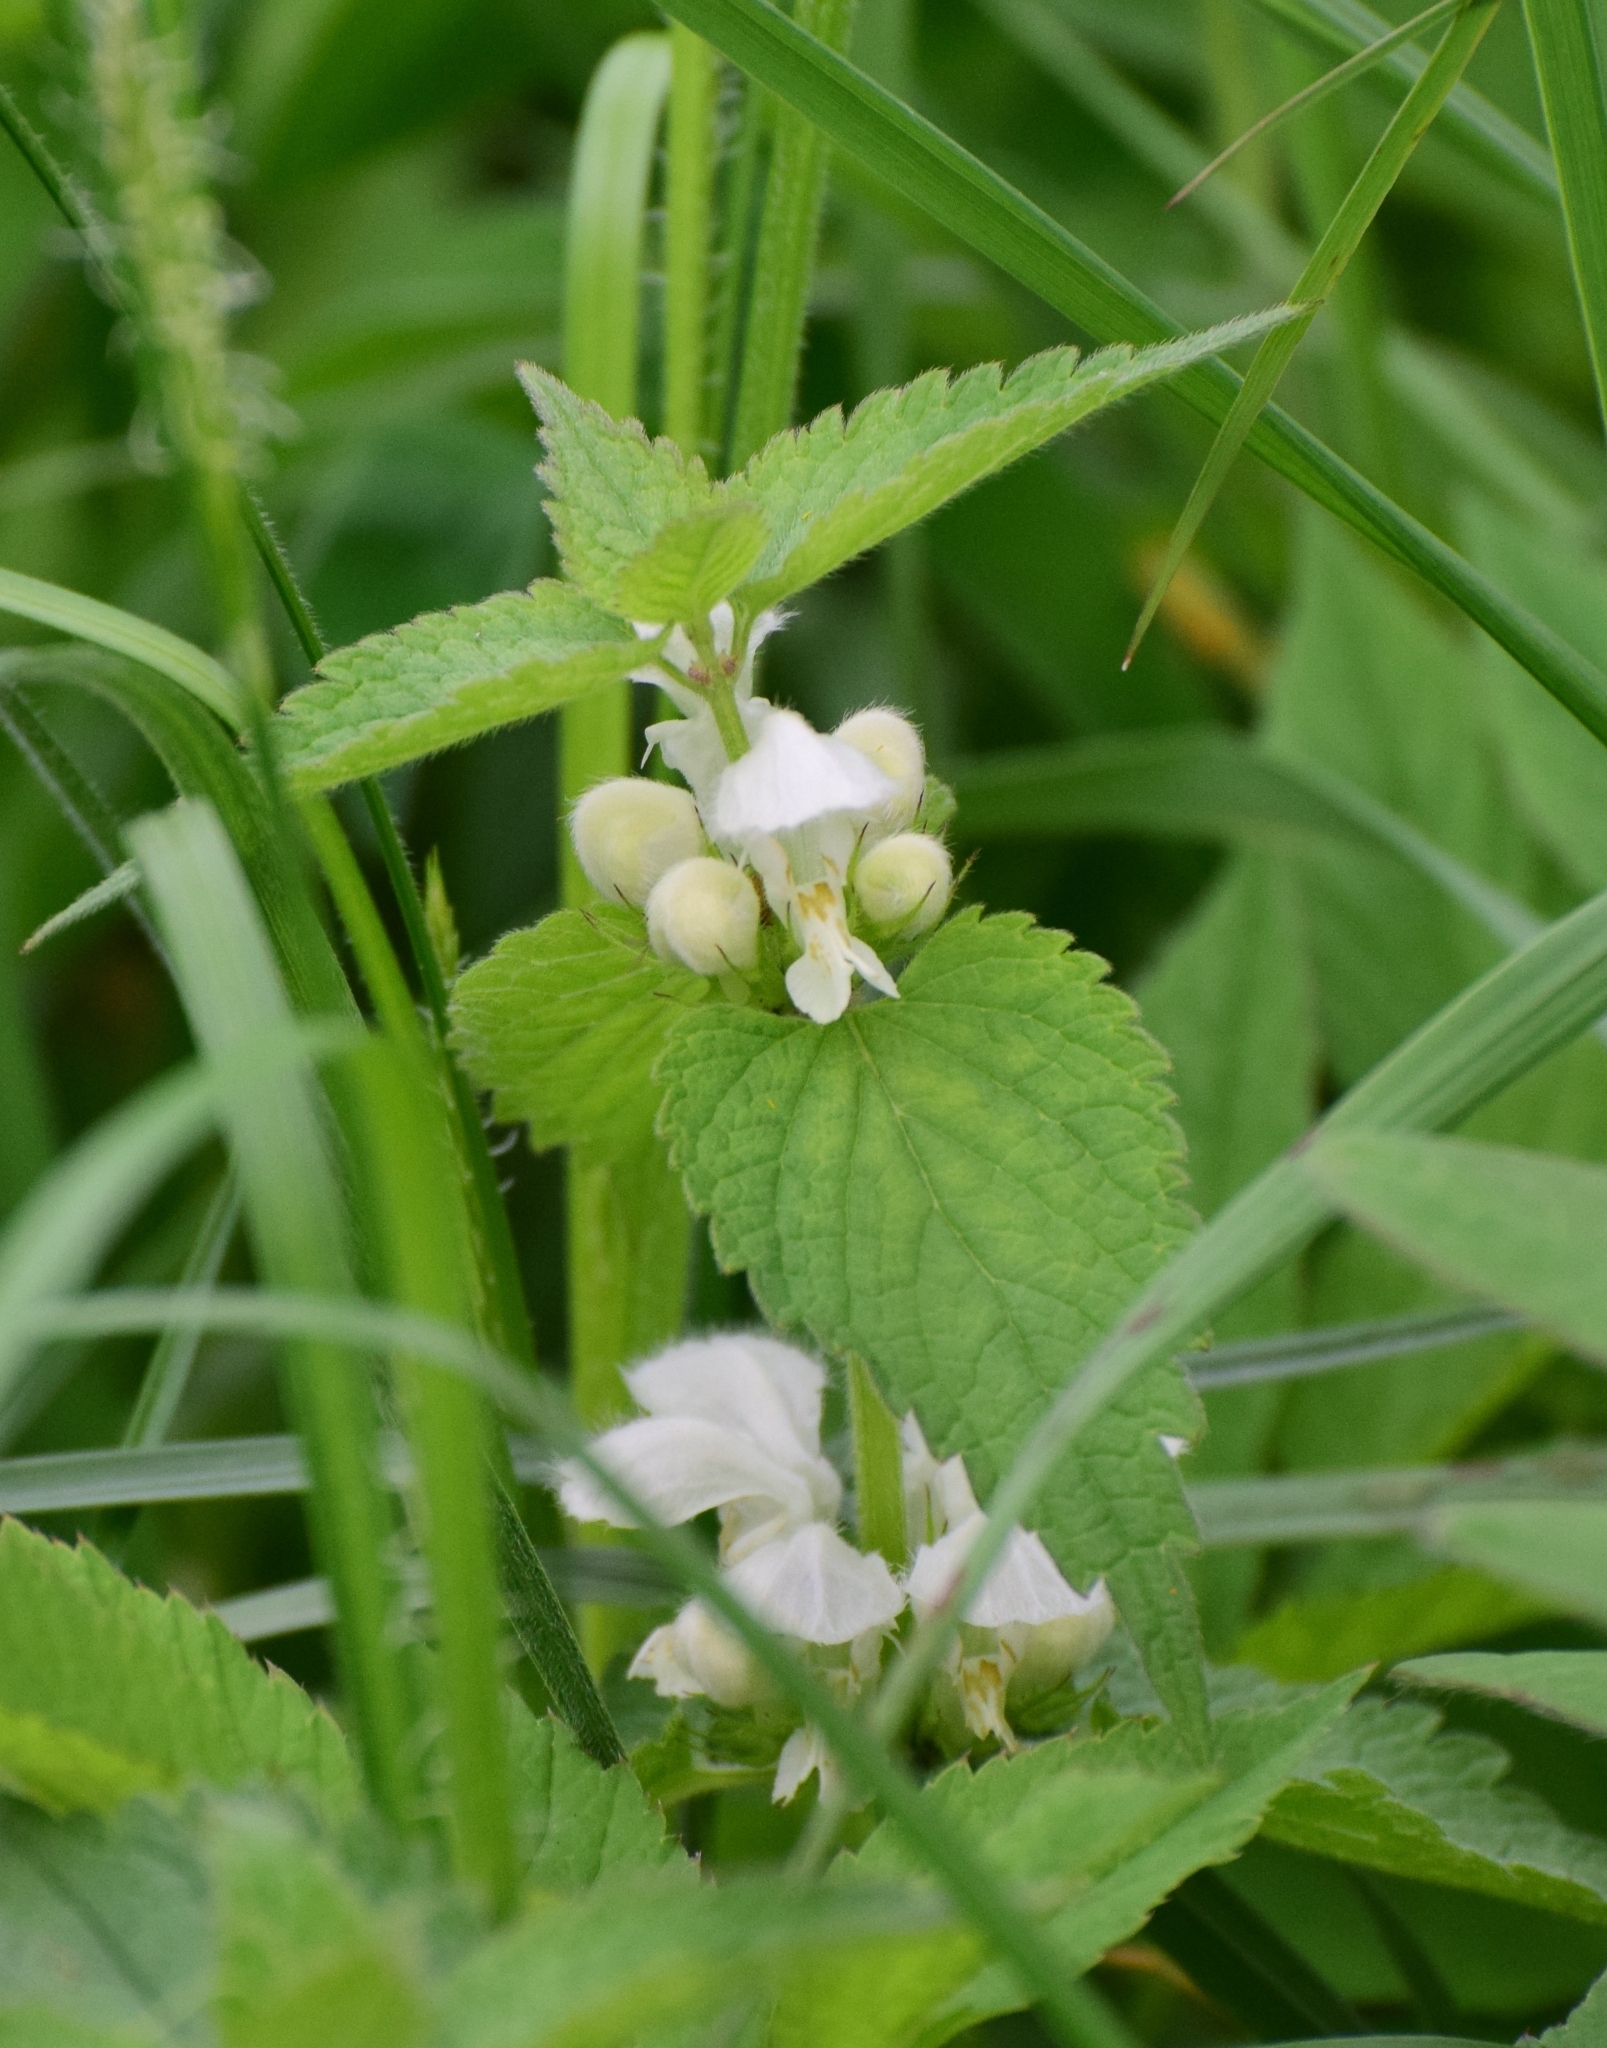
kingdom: Plantae
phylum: Tracheophyta
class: Magnoliopsida
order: Lamiales
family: Lamiaceae
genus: Lamium
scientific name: Lamium album
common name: White dead-nettle
